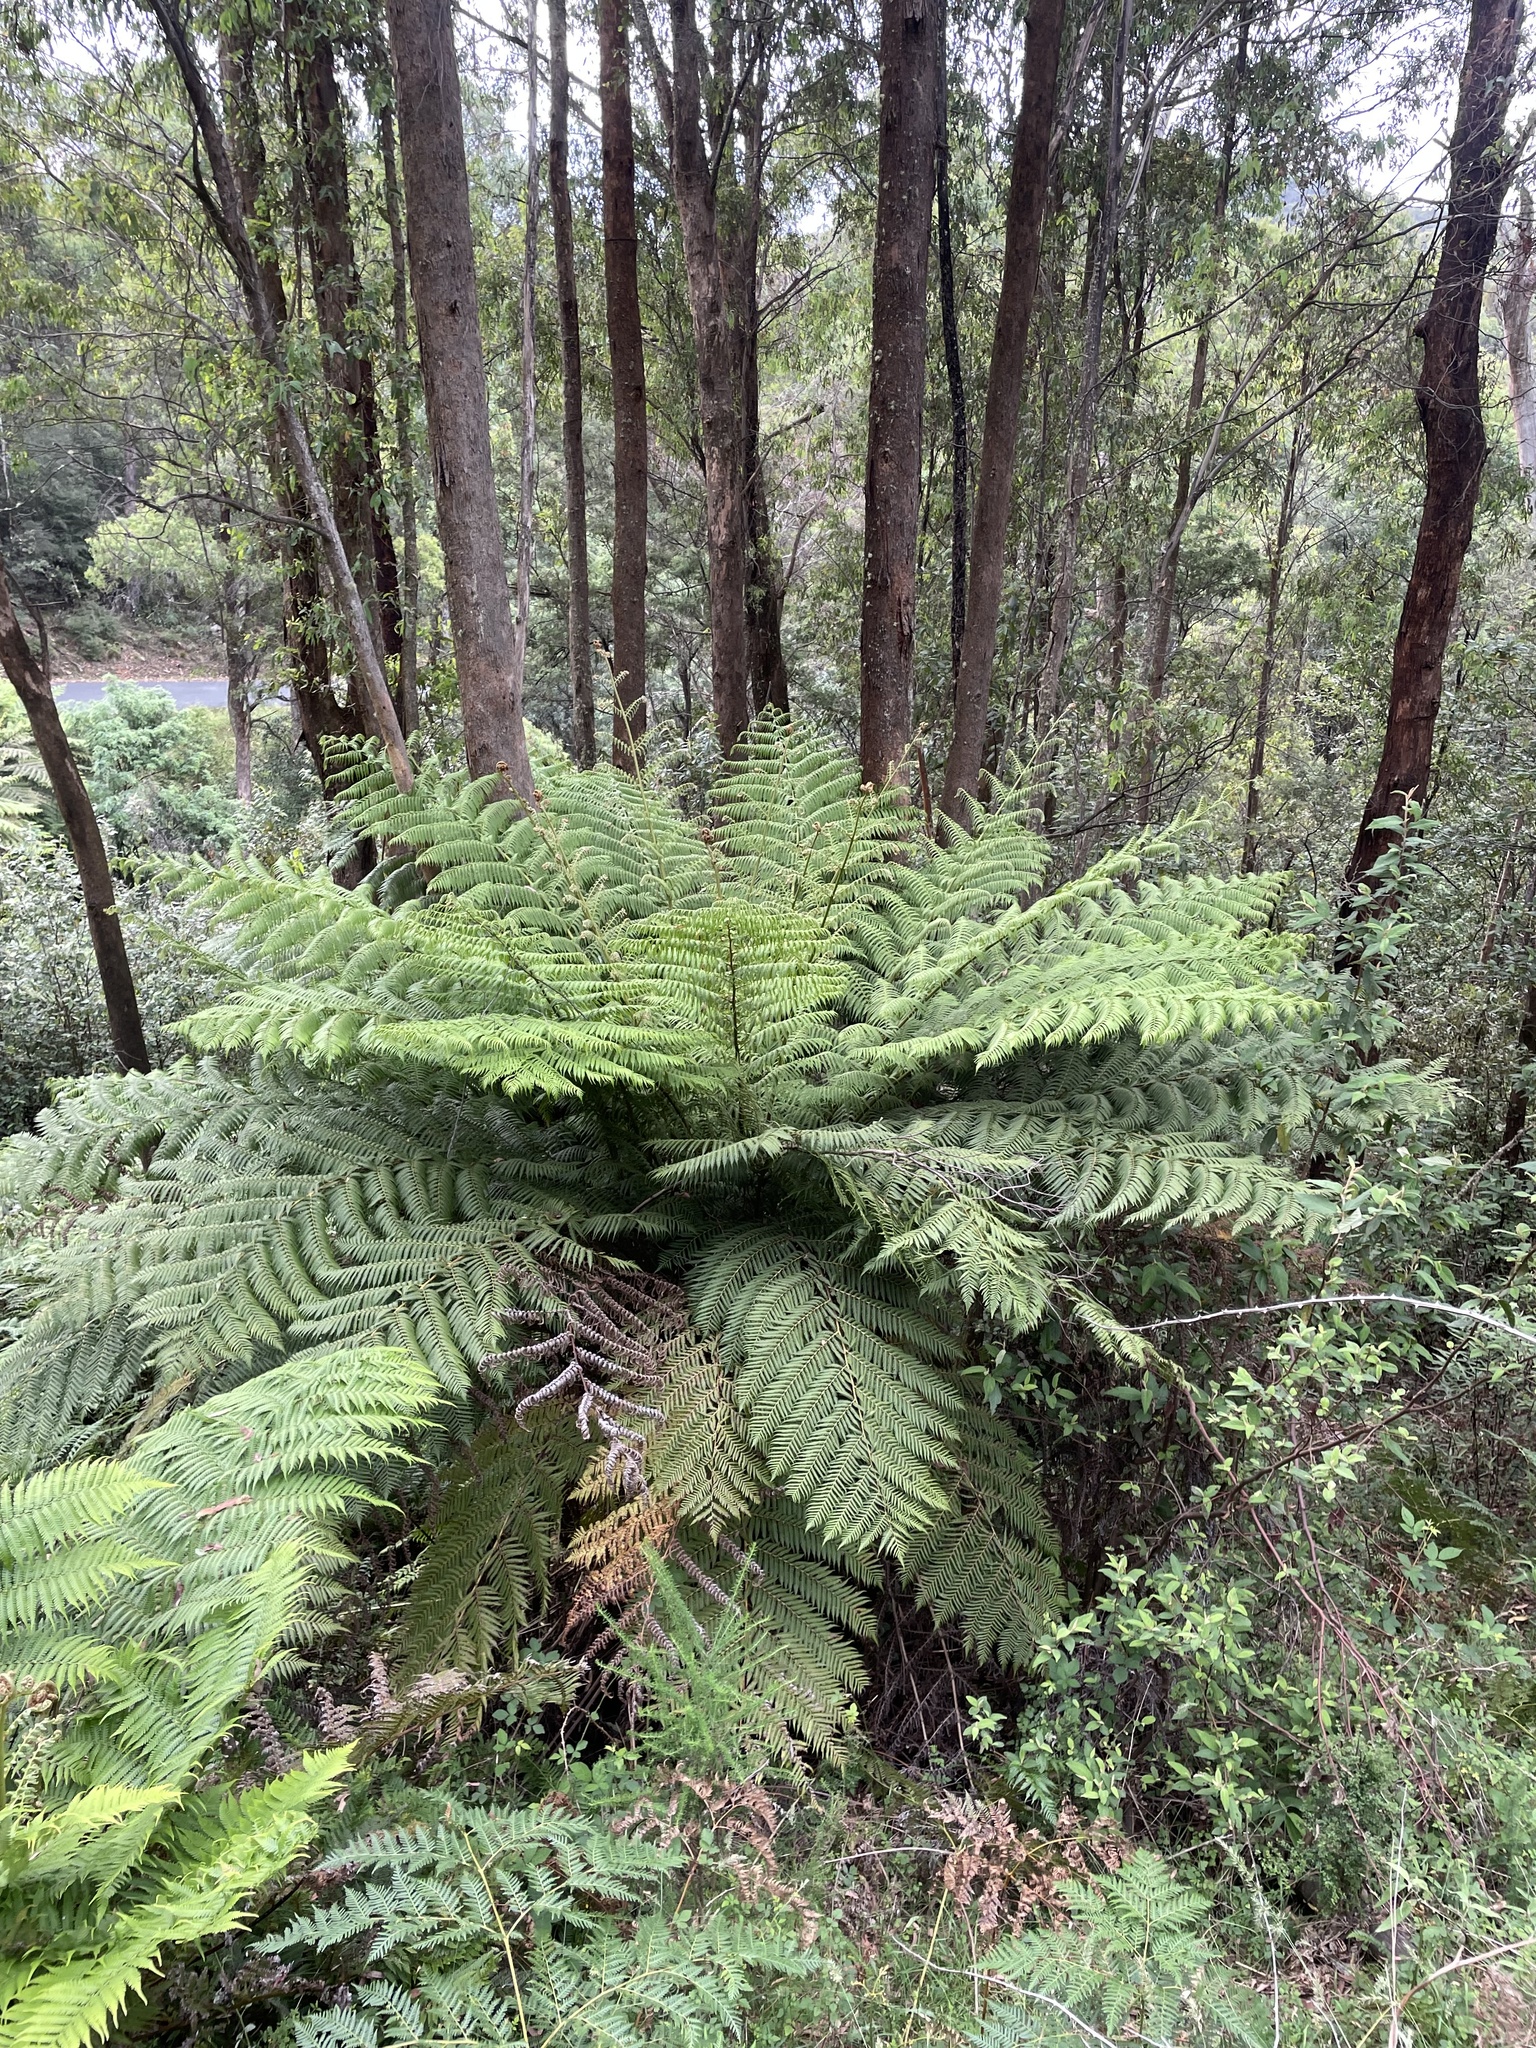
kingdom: Plantae
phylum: Tracheophyta
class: Polypodiopsida
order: Cyatheales
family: Cyatheaceae
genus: Alsophila
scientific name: Alsophila australis
